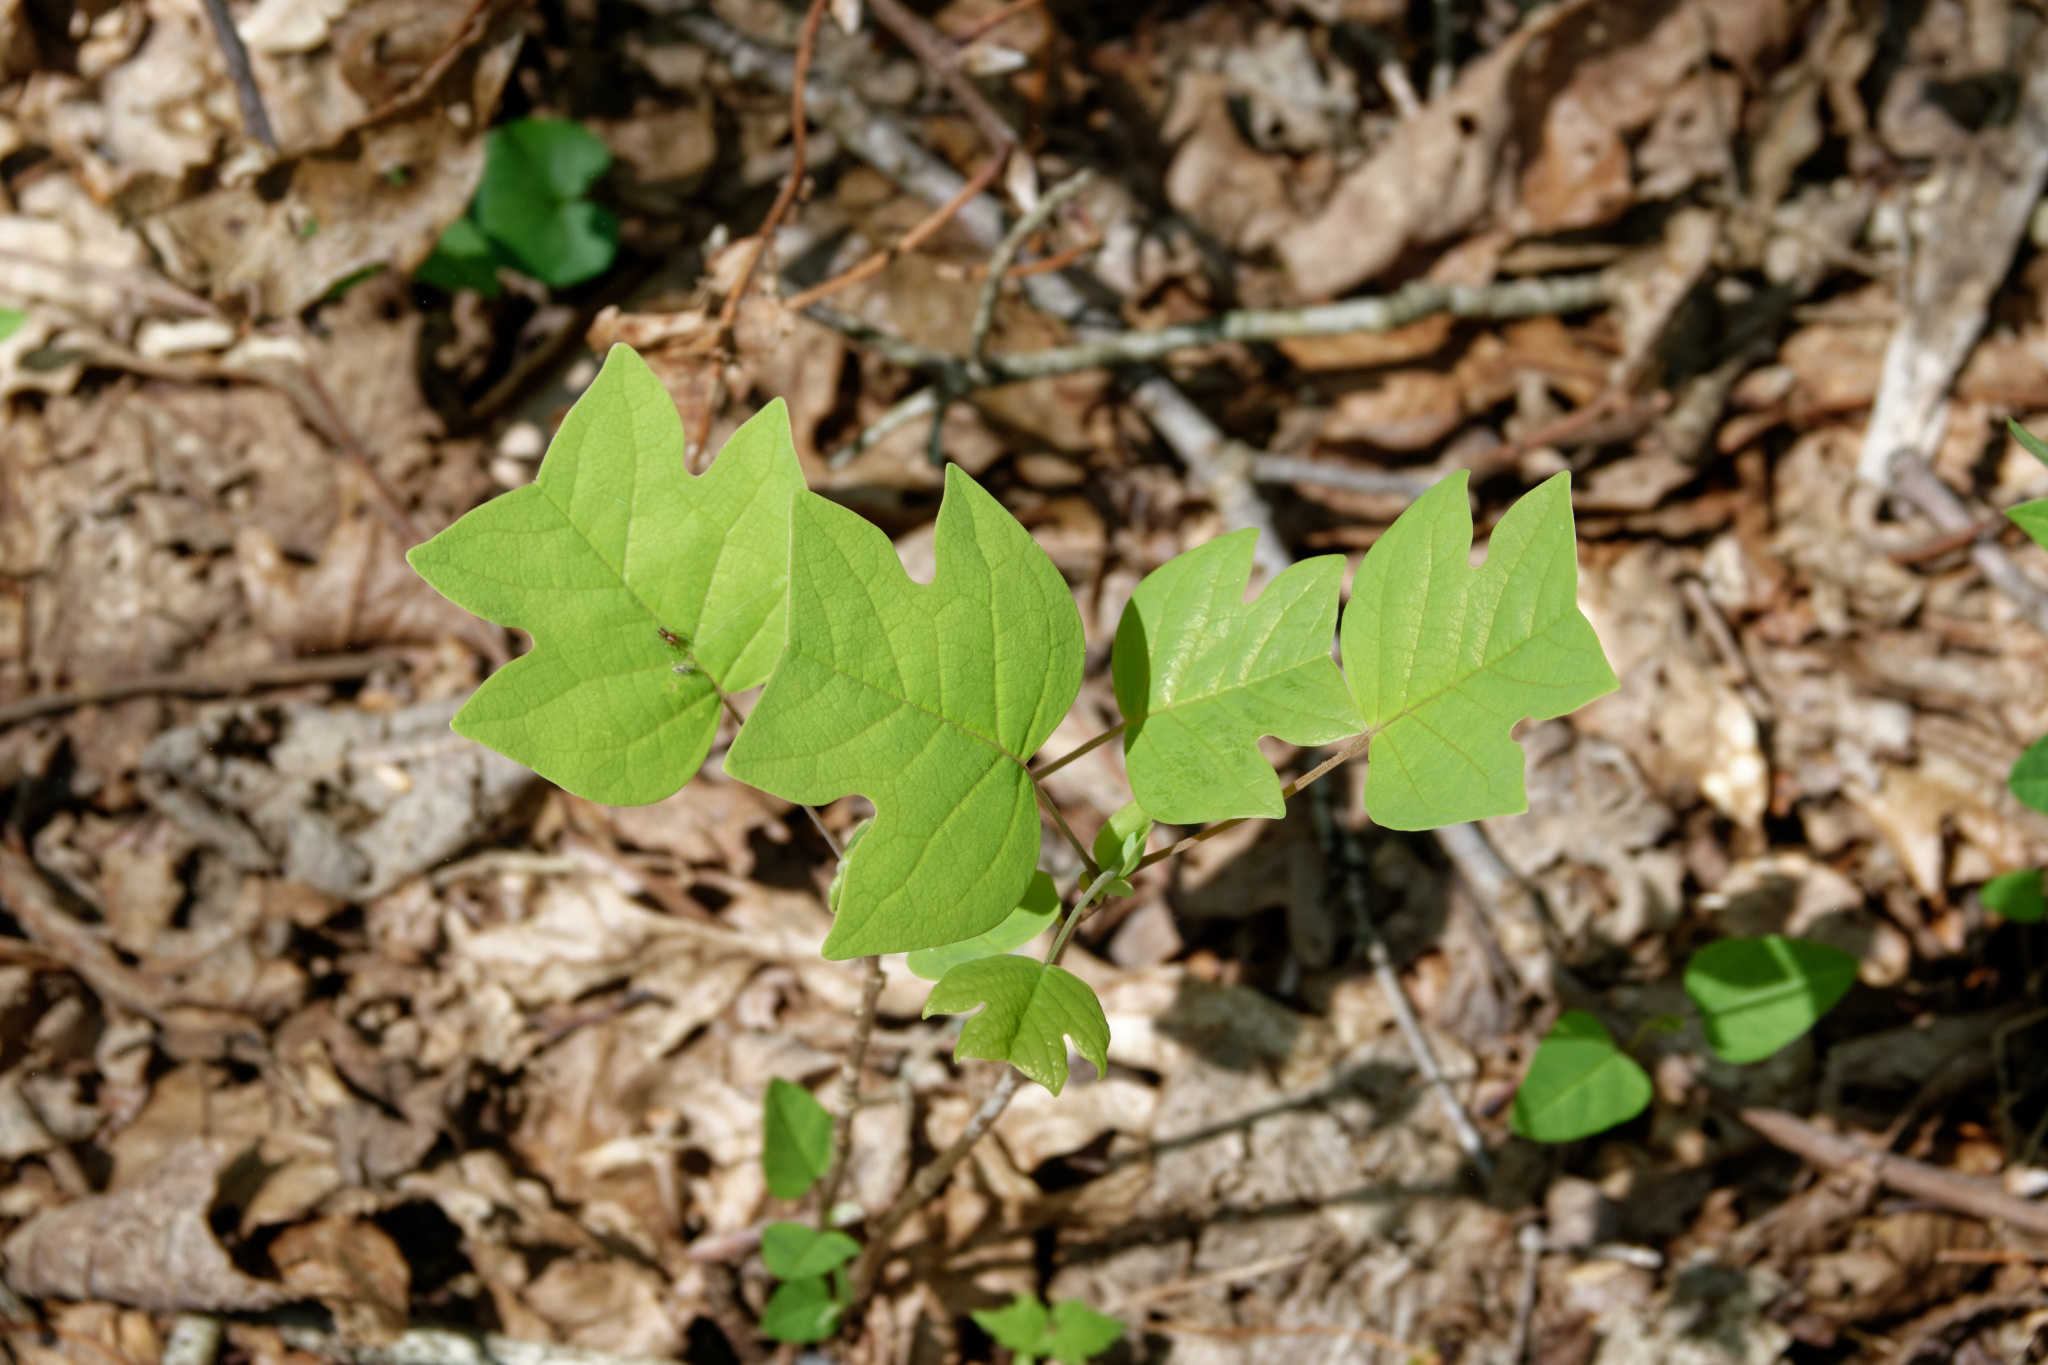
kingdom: Plantae
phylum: Tracheophyta
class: Magnoliopsida
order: Magnoliales
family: Magnoliaceae
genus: Liriodendron
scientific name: Liriodendron tulipifera
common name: Tulip tree
